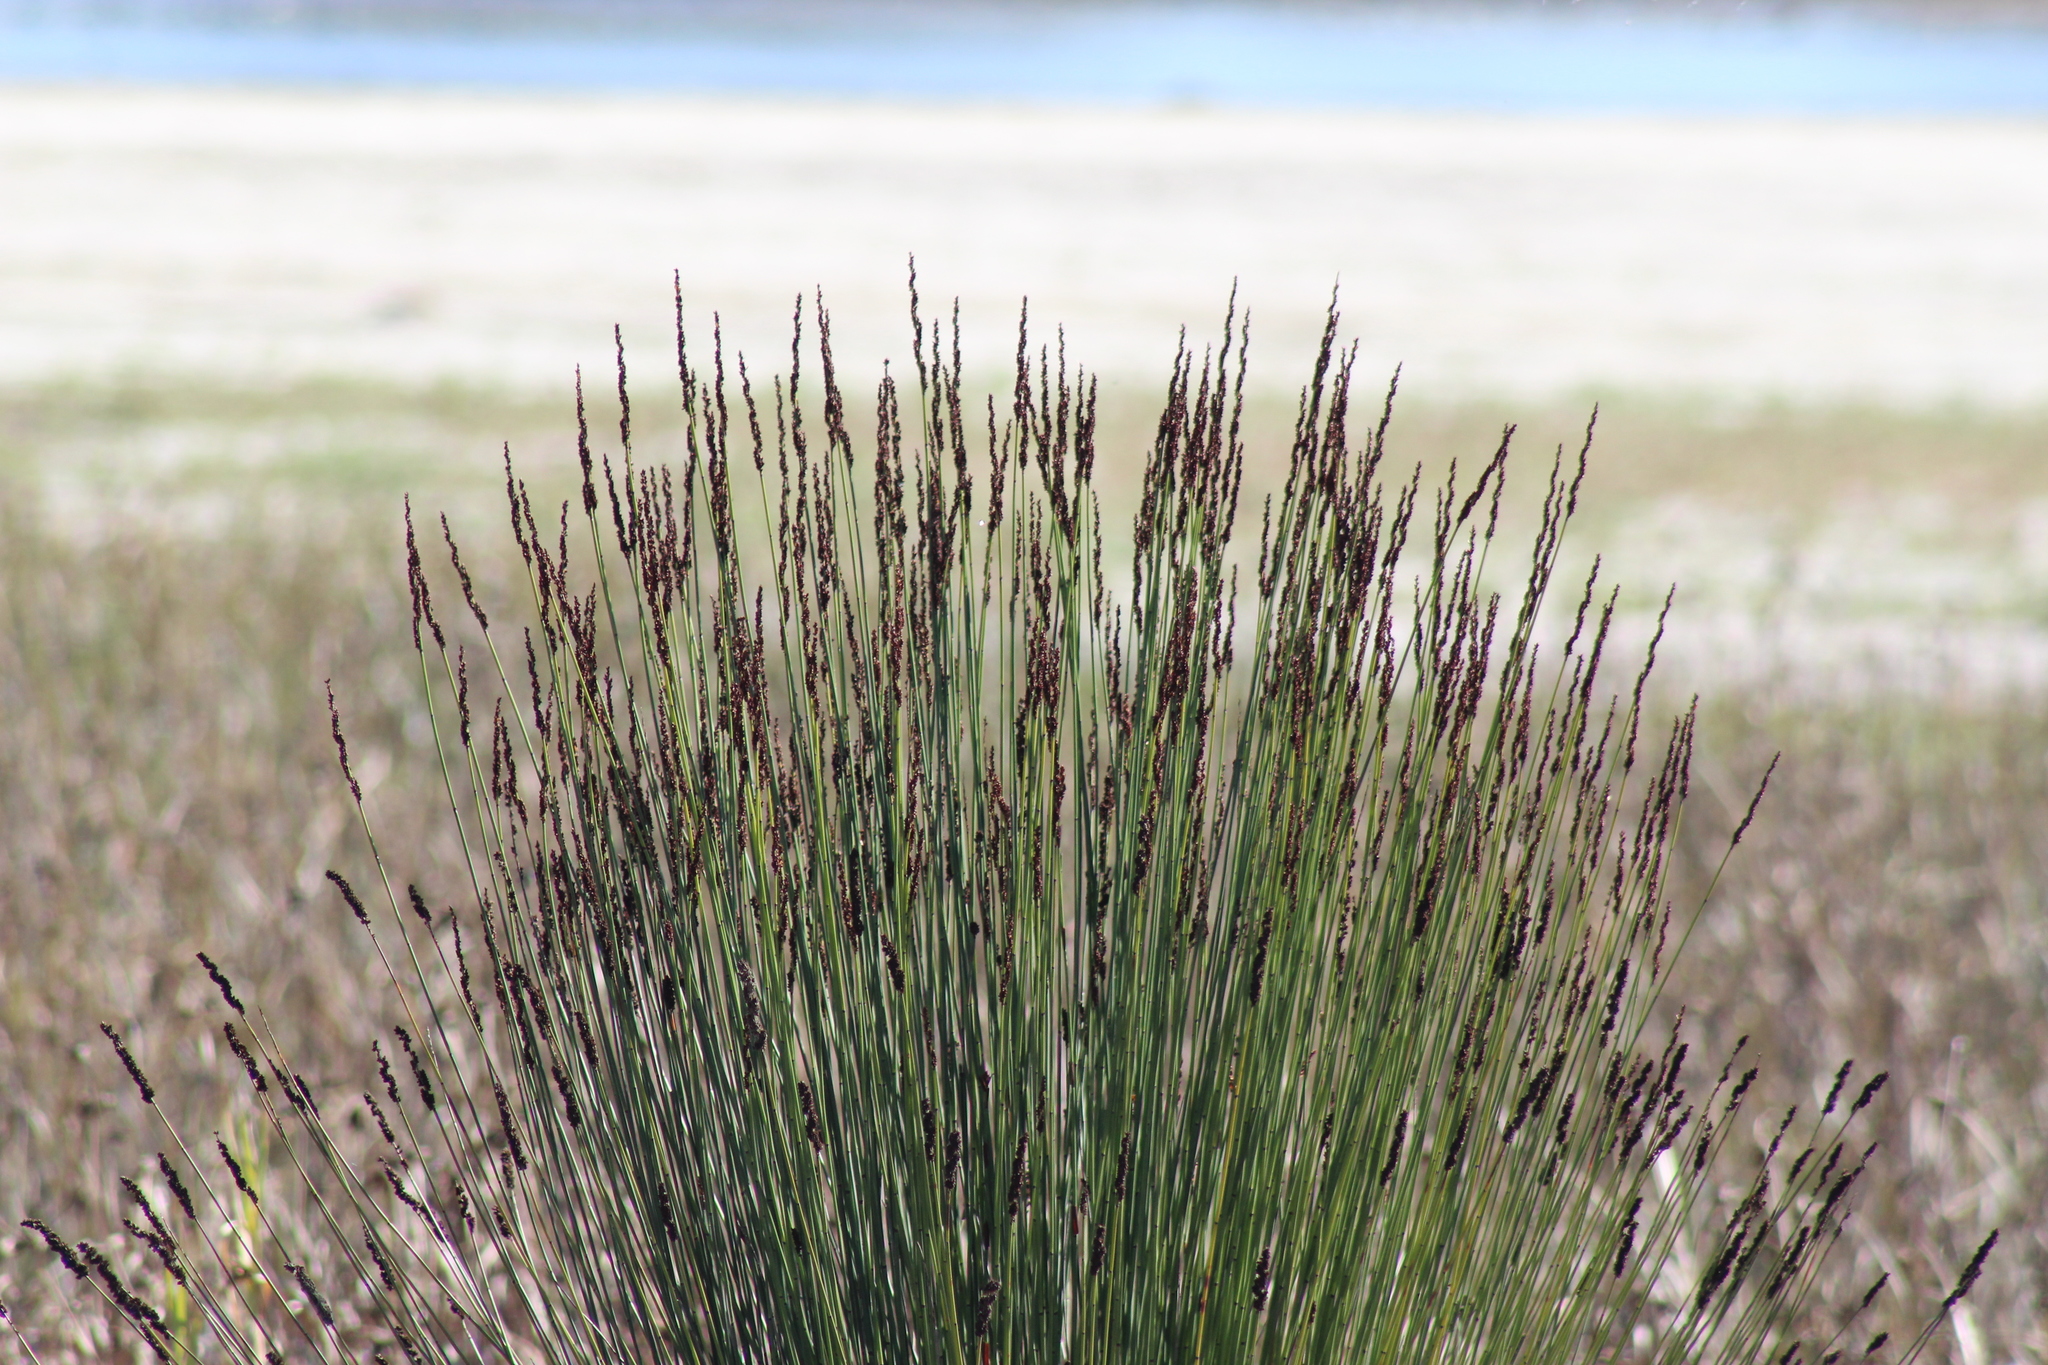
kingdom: Plantae
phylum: Tracheophyta
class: Liliopsida
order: Poales
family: Restionaceae
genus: Elegia
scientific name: Elegia tectorum
